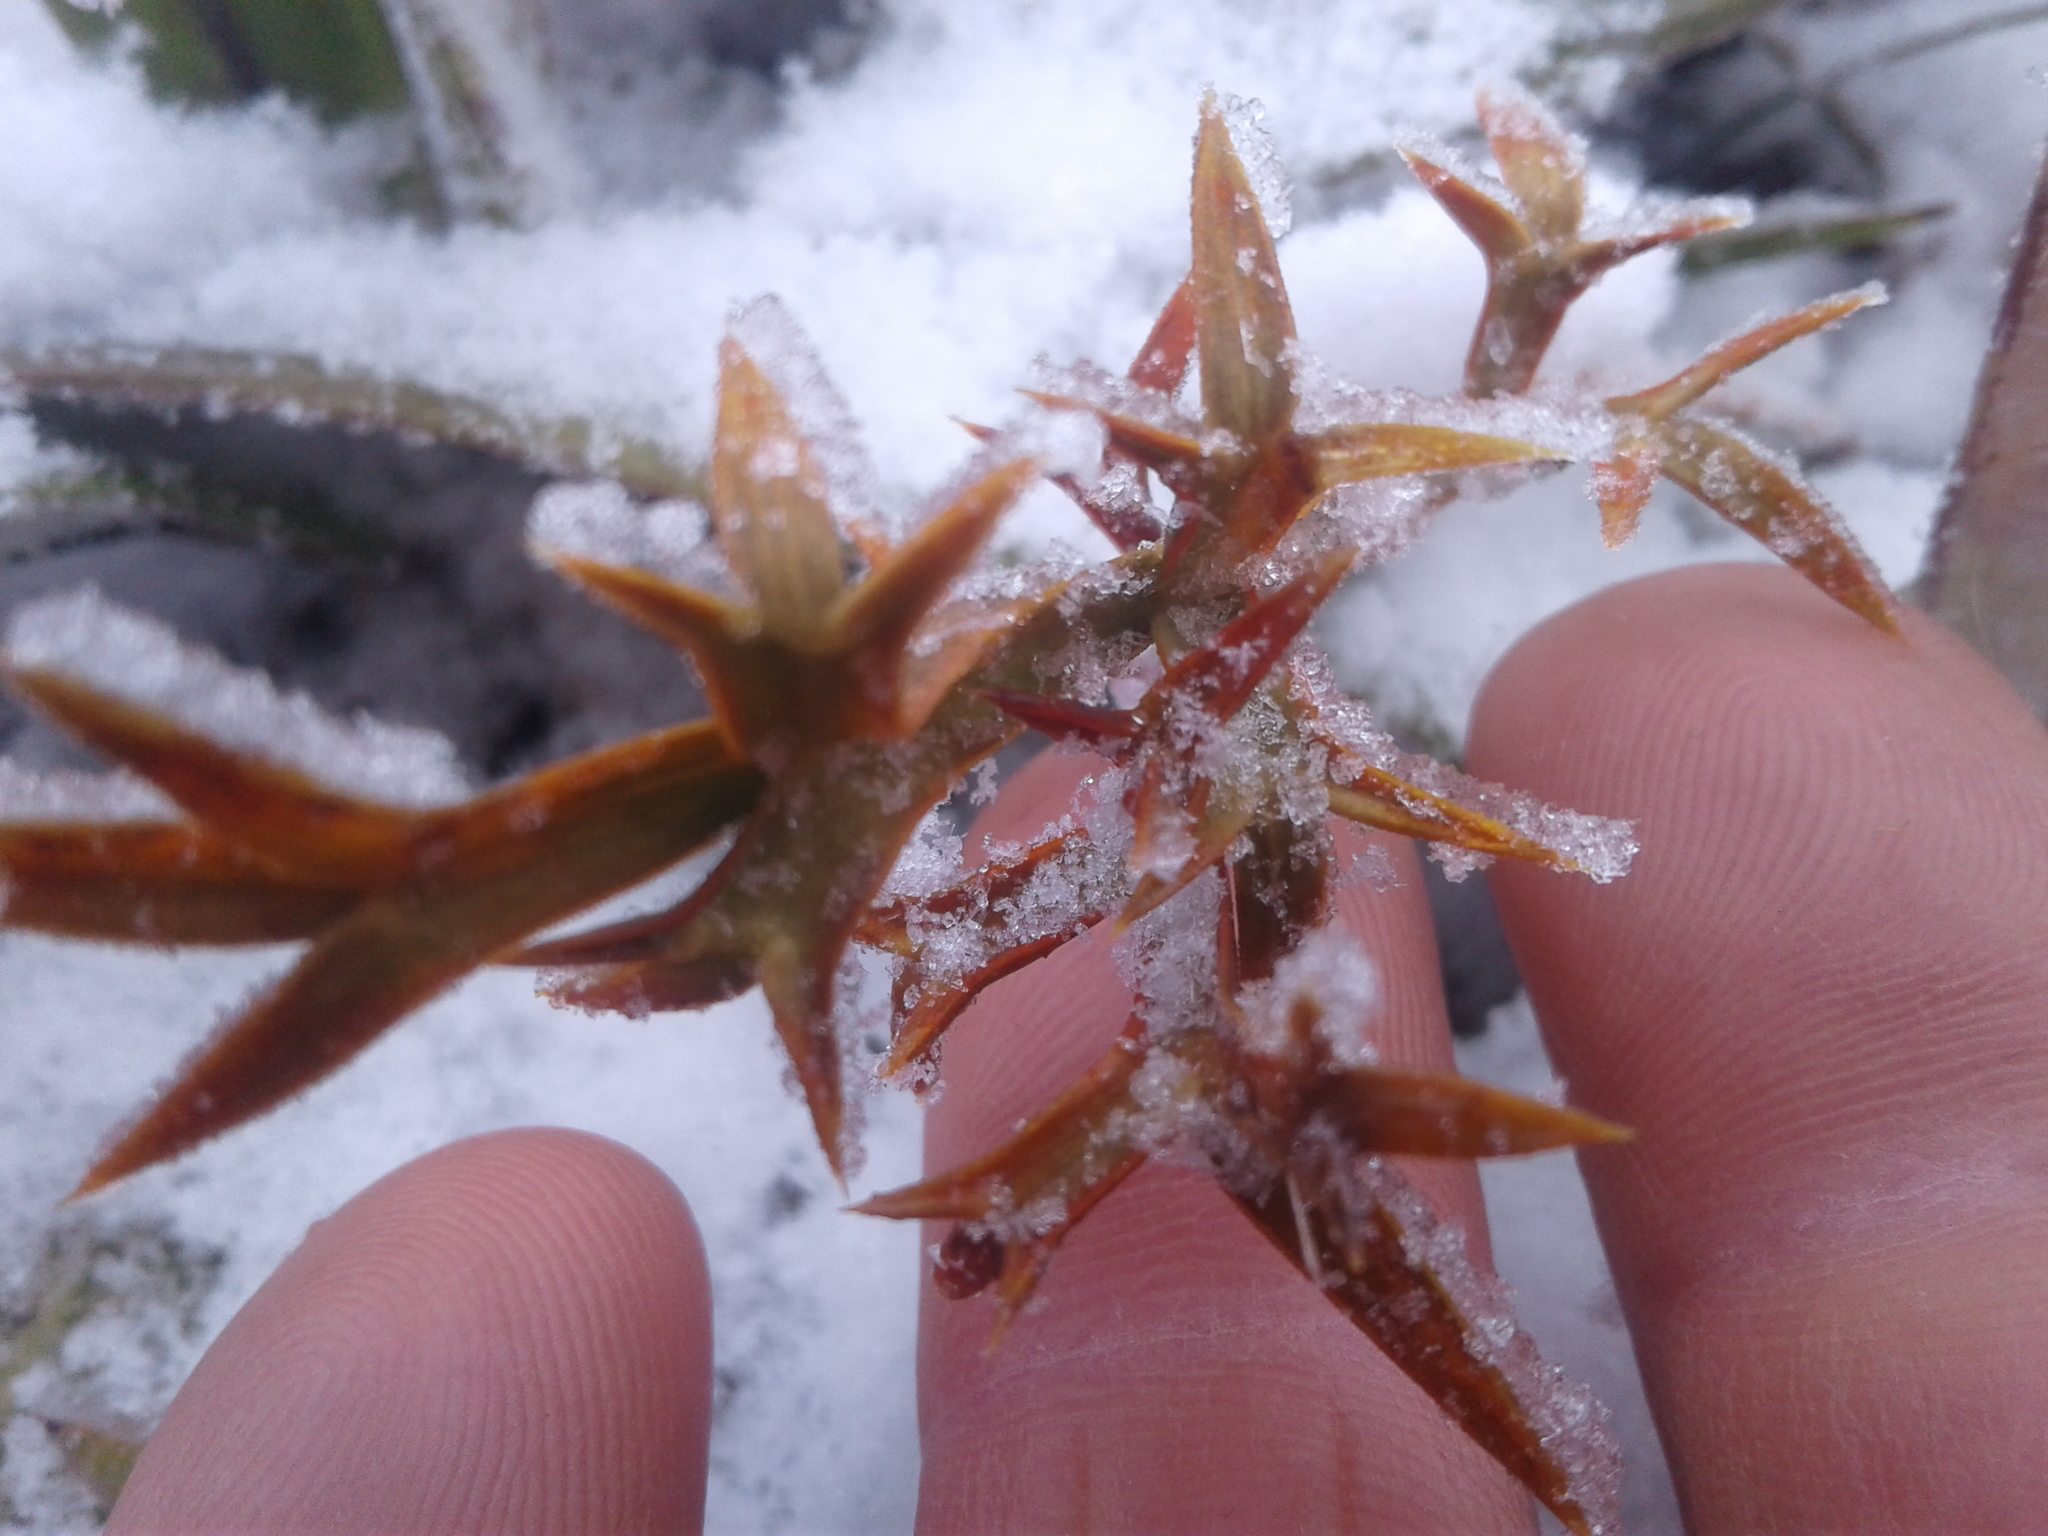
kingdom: Plantae
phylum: Tracheophyta
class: Magnoliopsida
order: Apiales
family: Apiaceae
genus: Aciphylla
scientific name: Aciphylla hookeri
